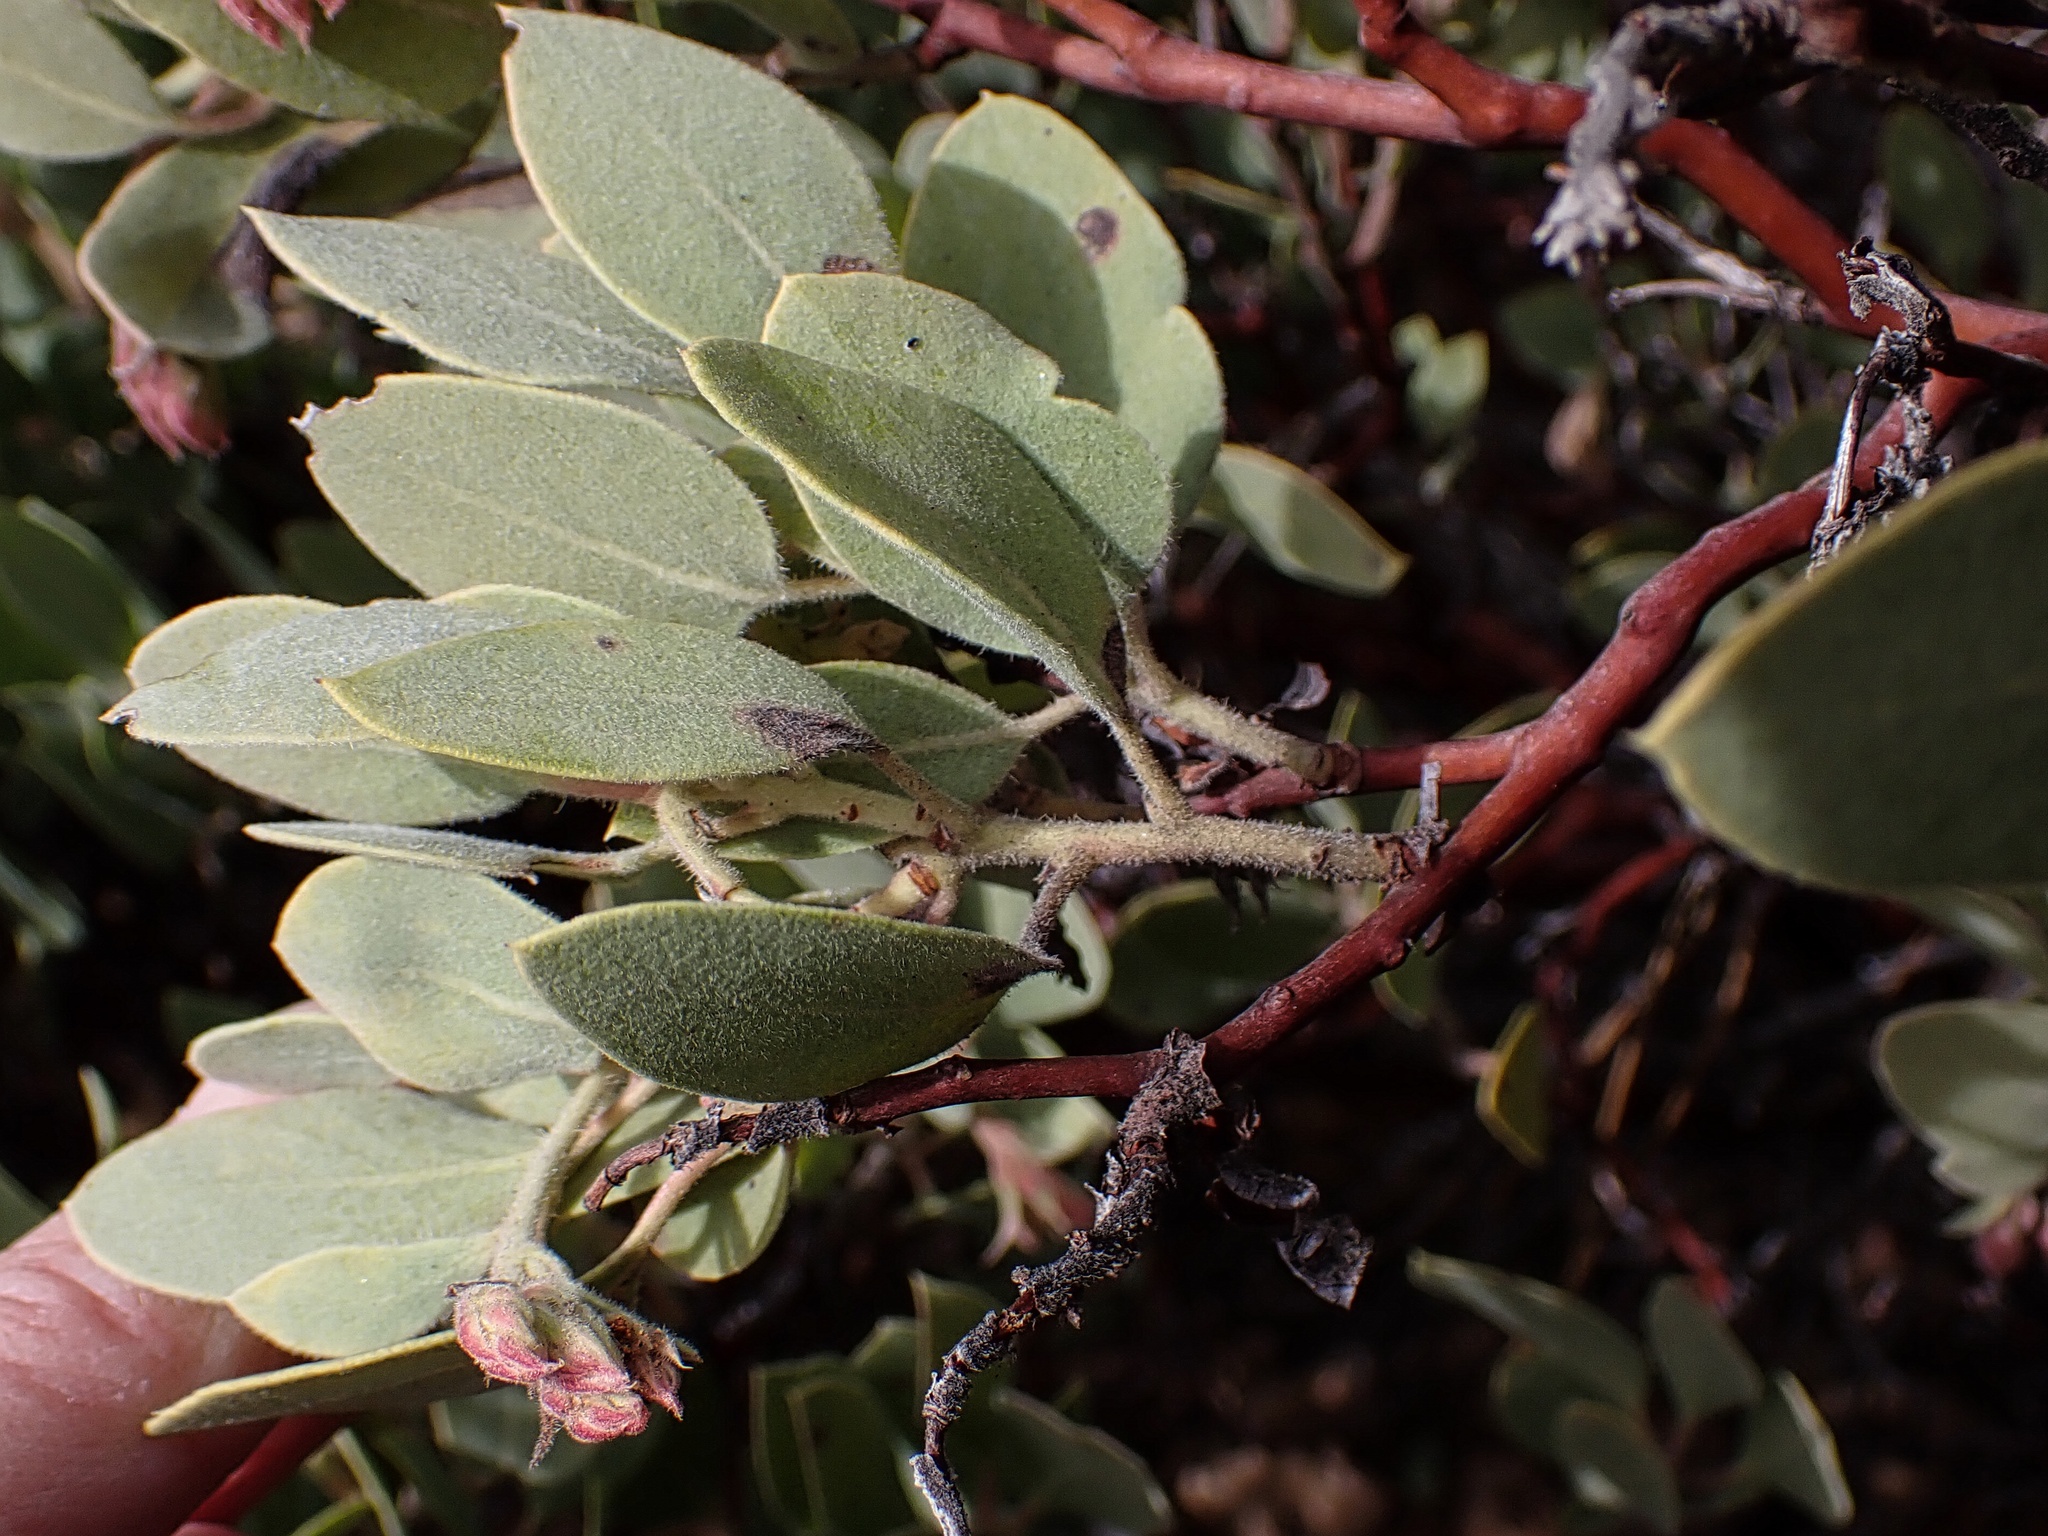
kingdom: Plantae
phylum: Tracheophyta
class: Magnoliopsida
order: Ericales
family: Ericaceae
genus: Arctostaphylos
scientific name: Arctostaphylos glandulosa
